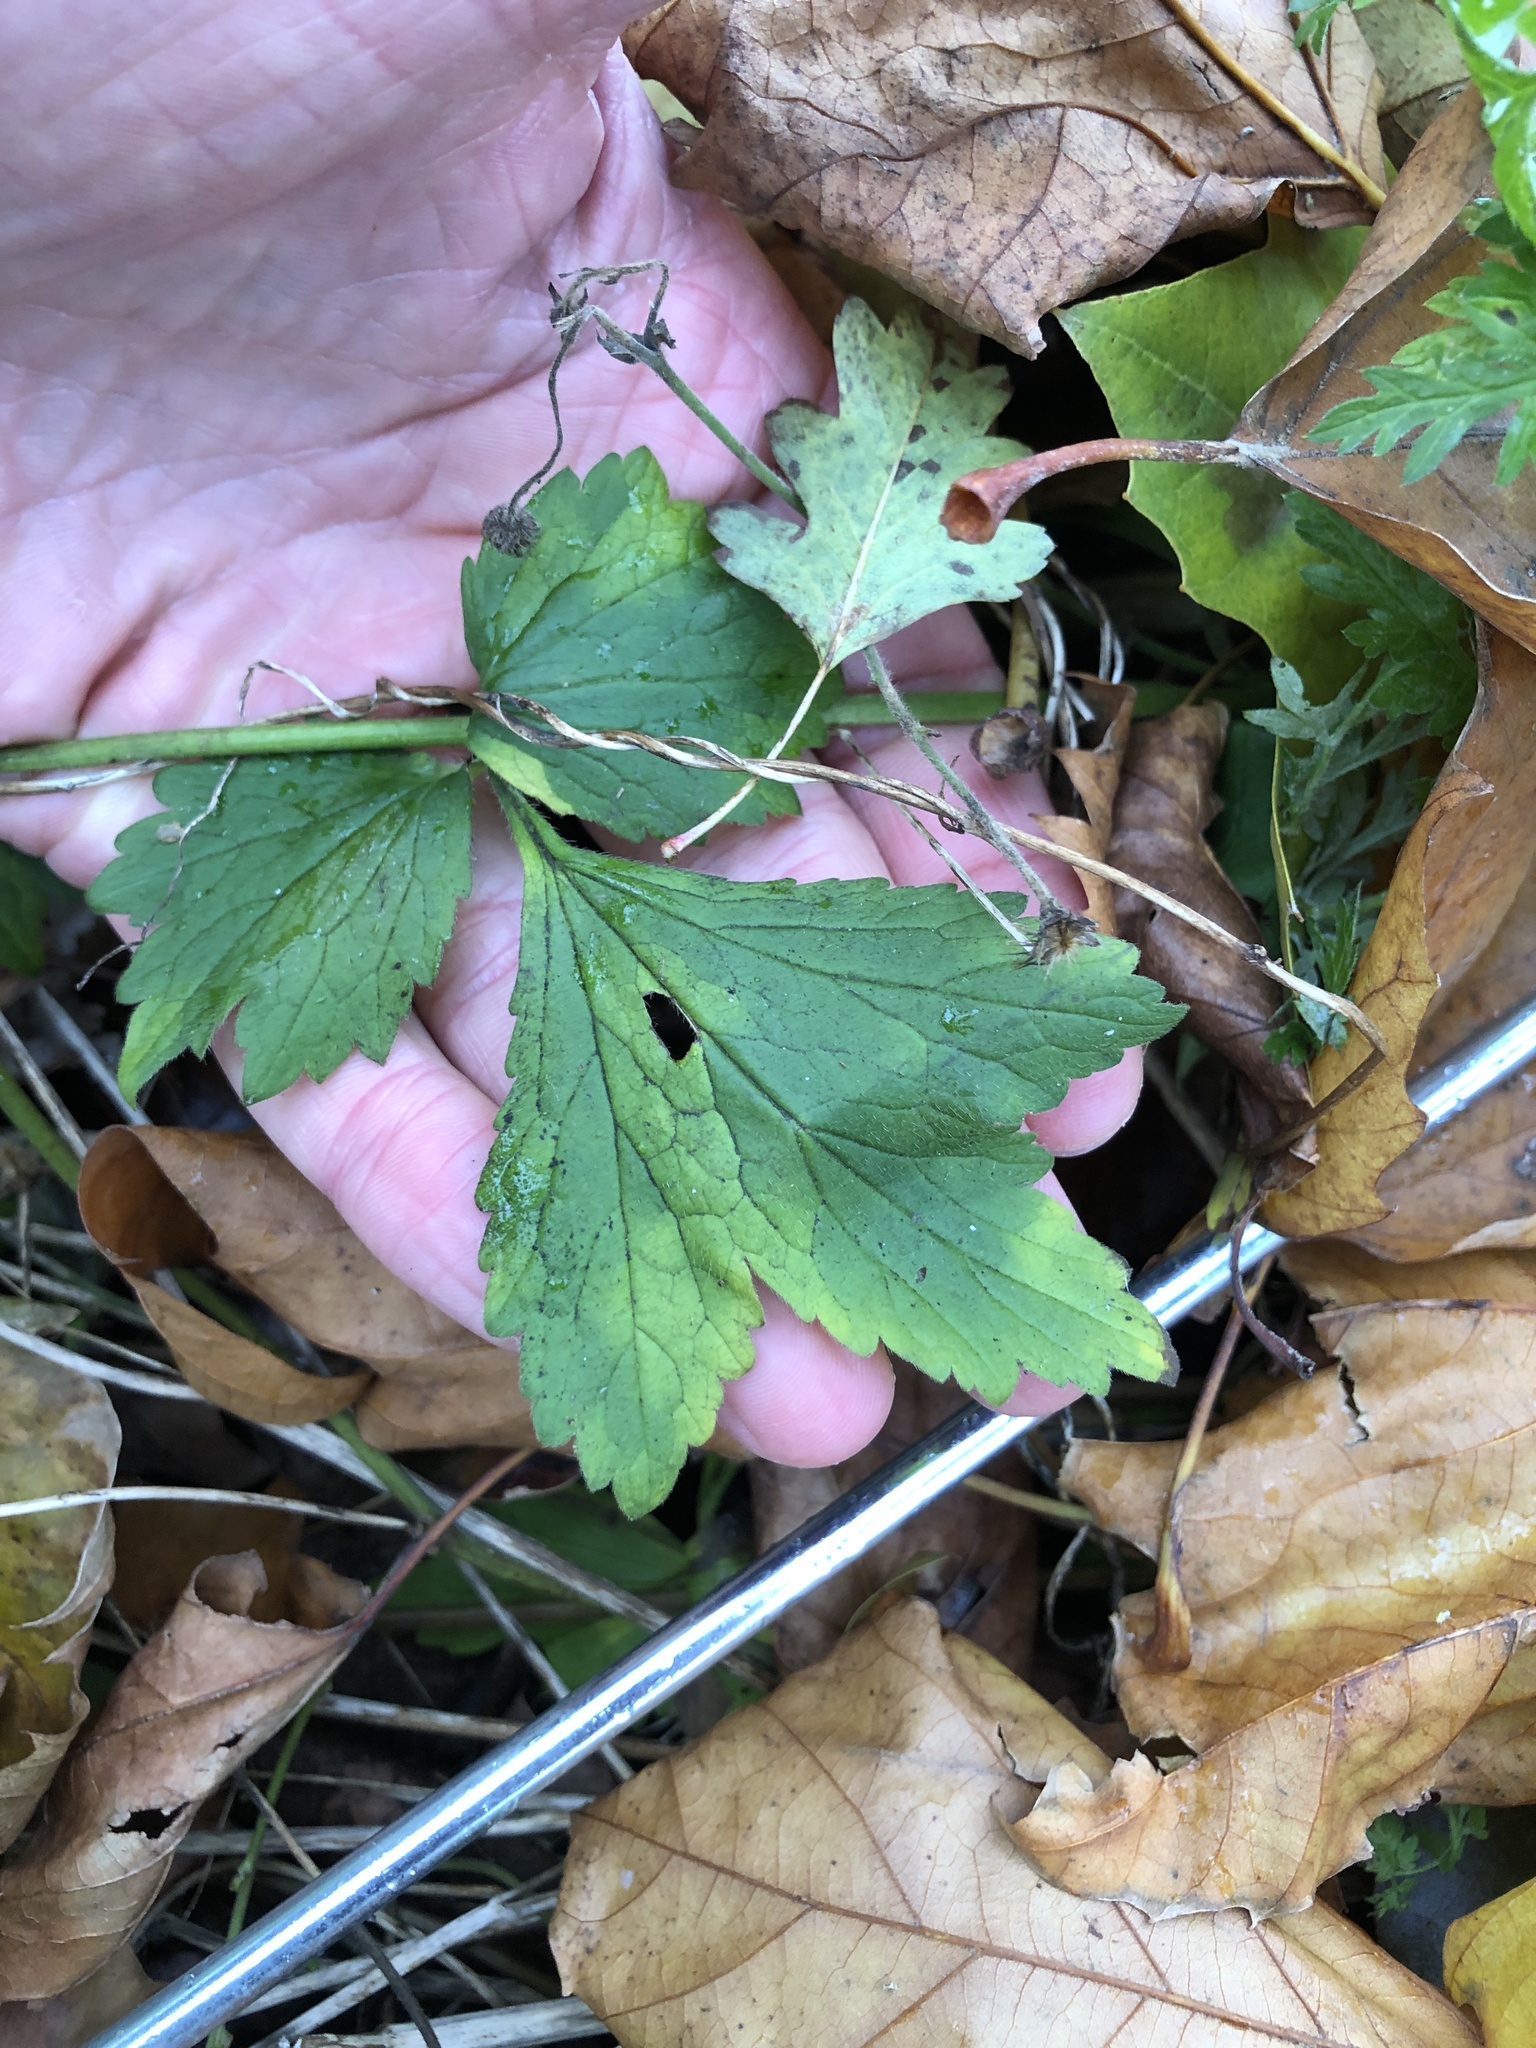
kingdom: Plantae
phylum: Tracheophyta
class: Magnoliopsida
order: Rosales
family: Rosaceae
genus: Geum
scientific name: Geum urbanum
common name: Wood avens
